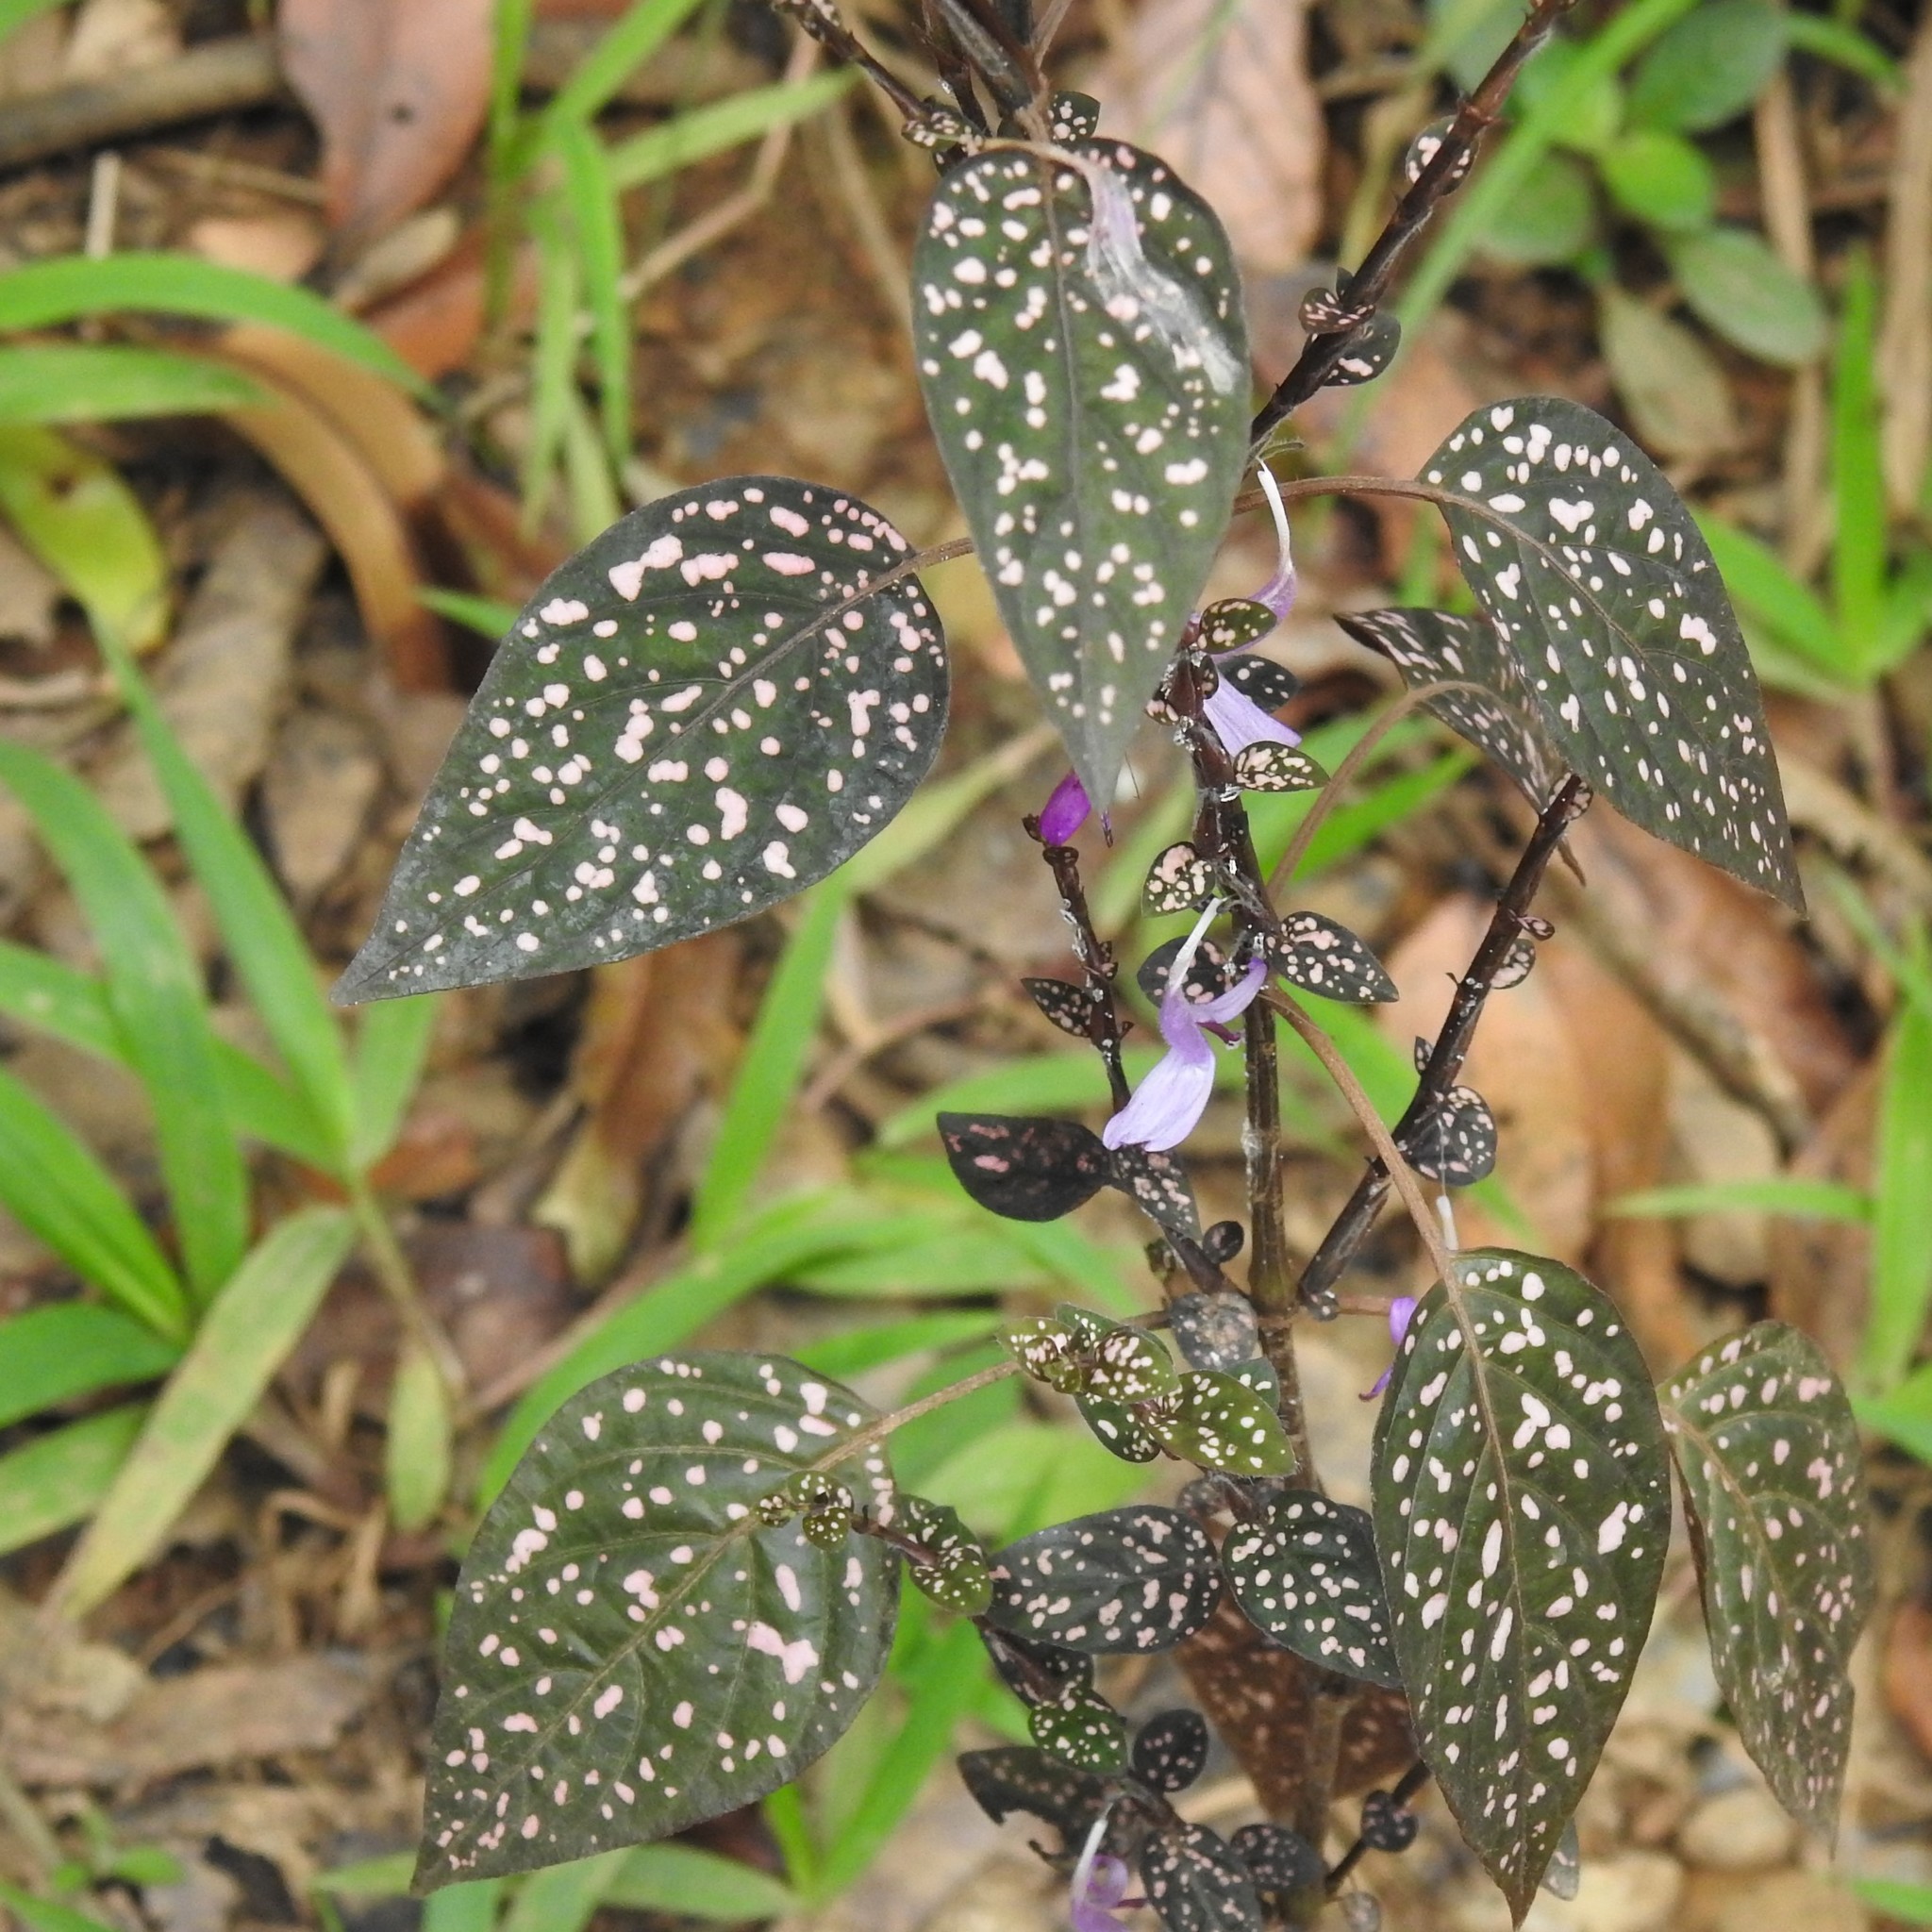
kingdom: Plantae
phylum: Tracheophyta
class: Magnoliopsida
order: Lamiales
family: Acanthaceae
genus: Hypoestes
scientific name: Hypoestes phyllostachya
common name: Polkadot-plant
